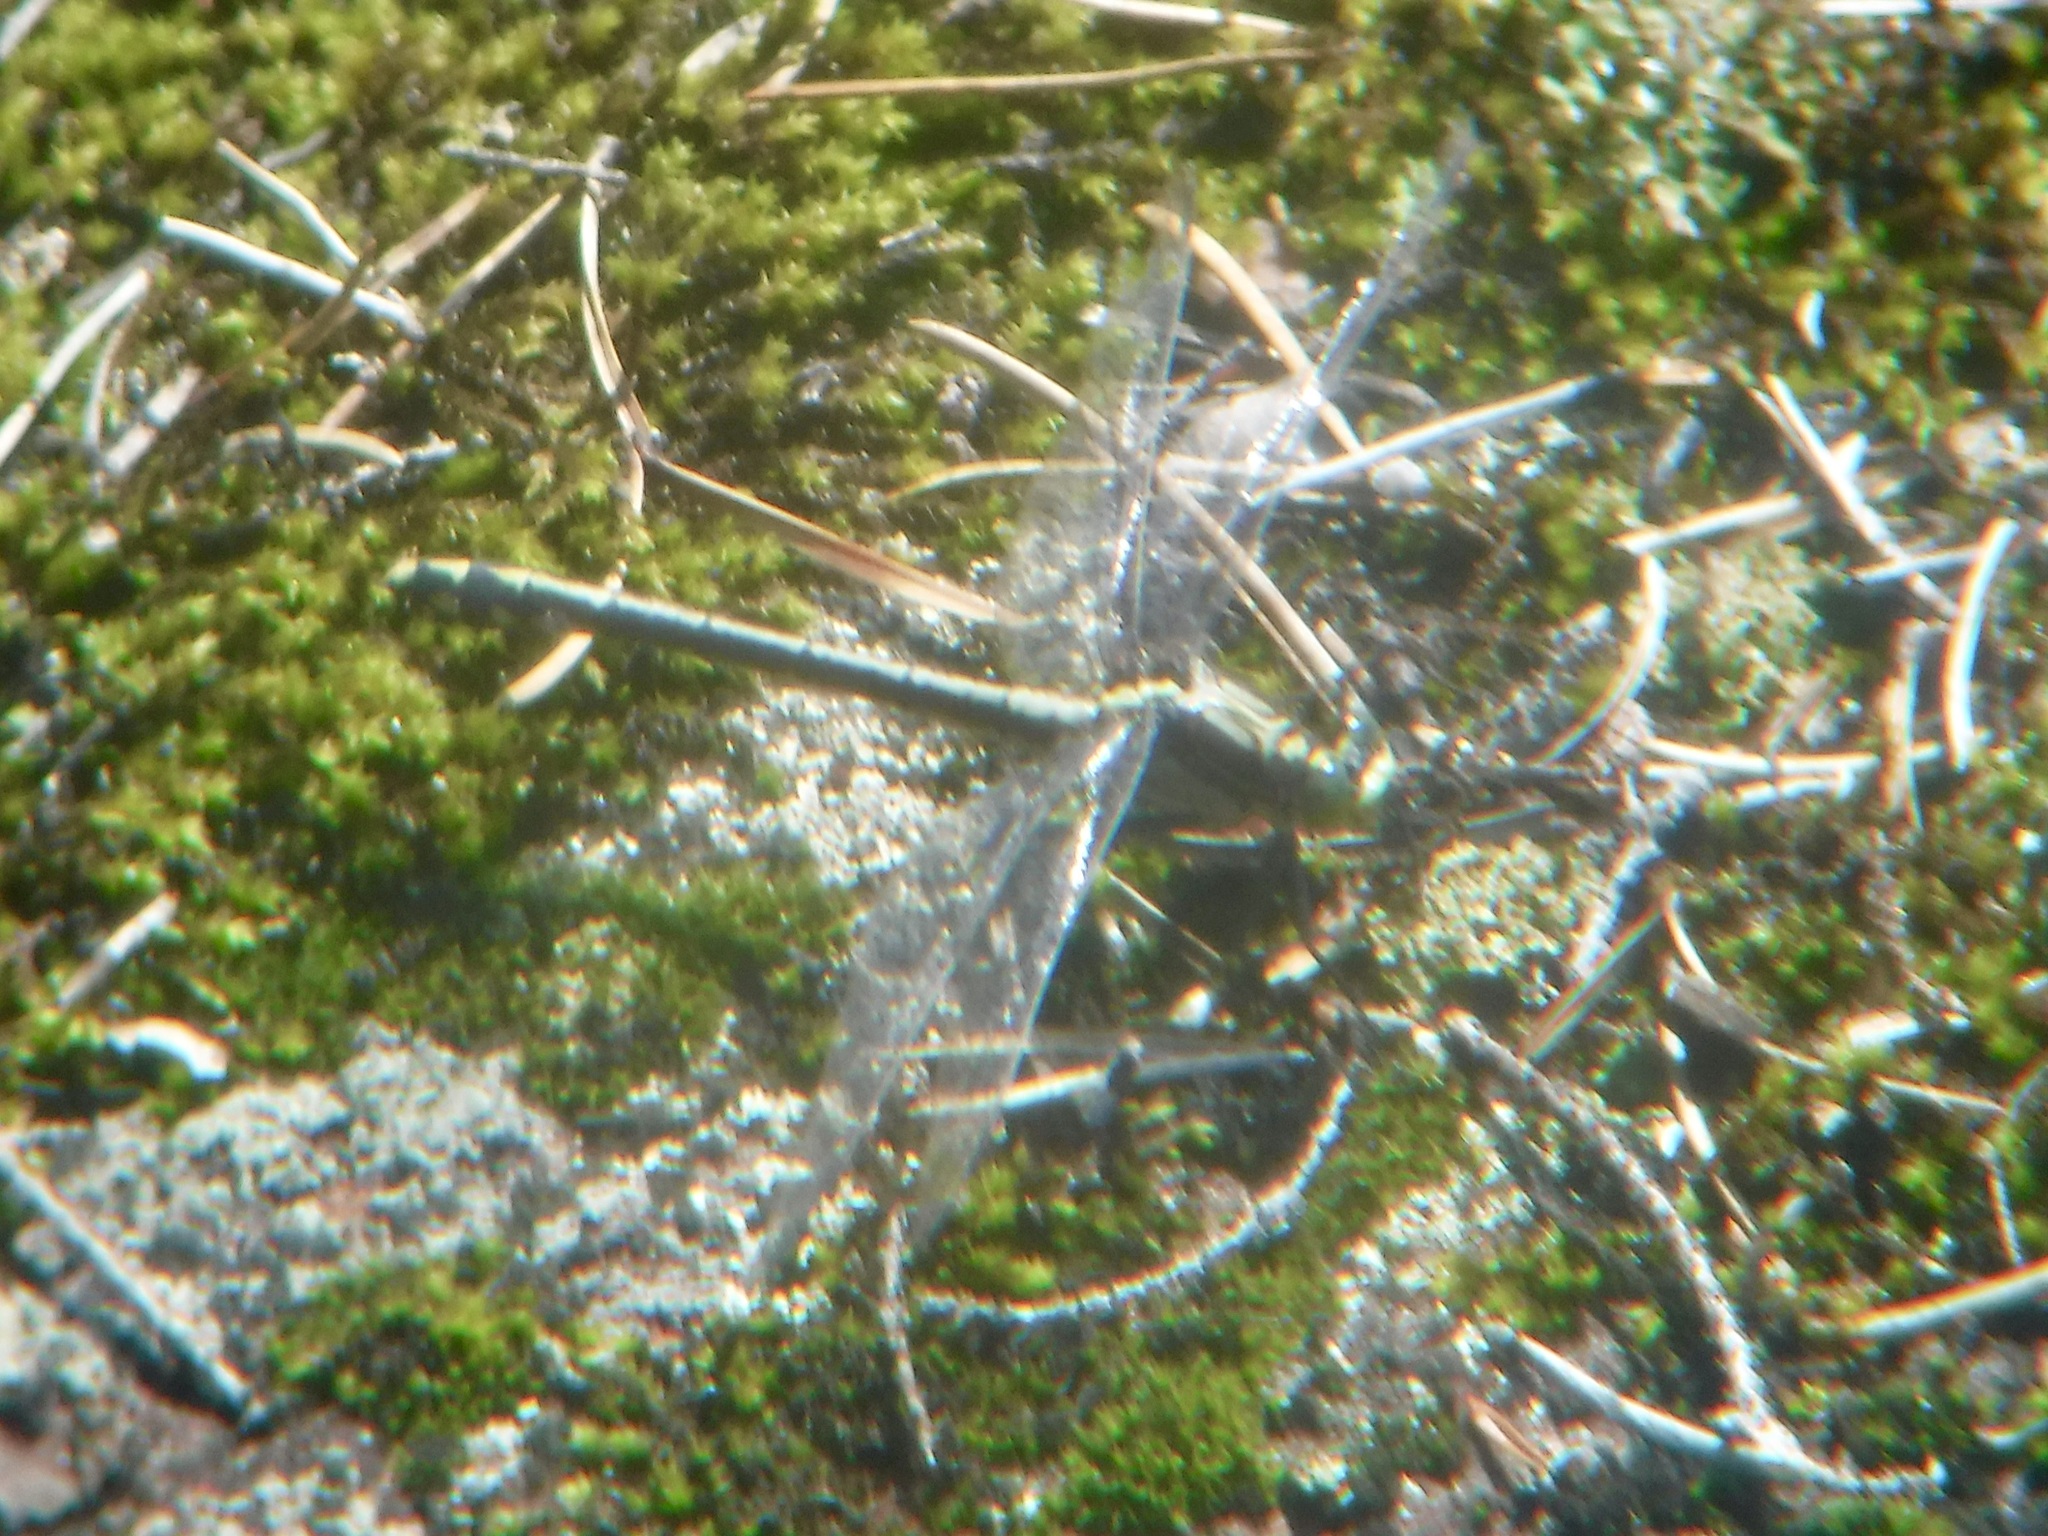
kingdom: Animalia
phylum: Arthropoda
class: Insecta
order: Odonata
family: Gomphidae
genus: Dromogomphus
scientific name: Dromogomphus spinosus
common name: Black-shouldered spinyleg
